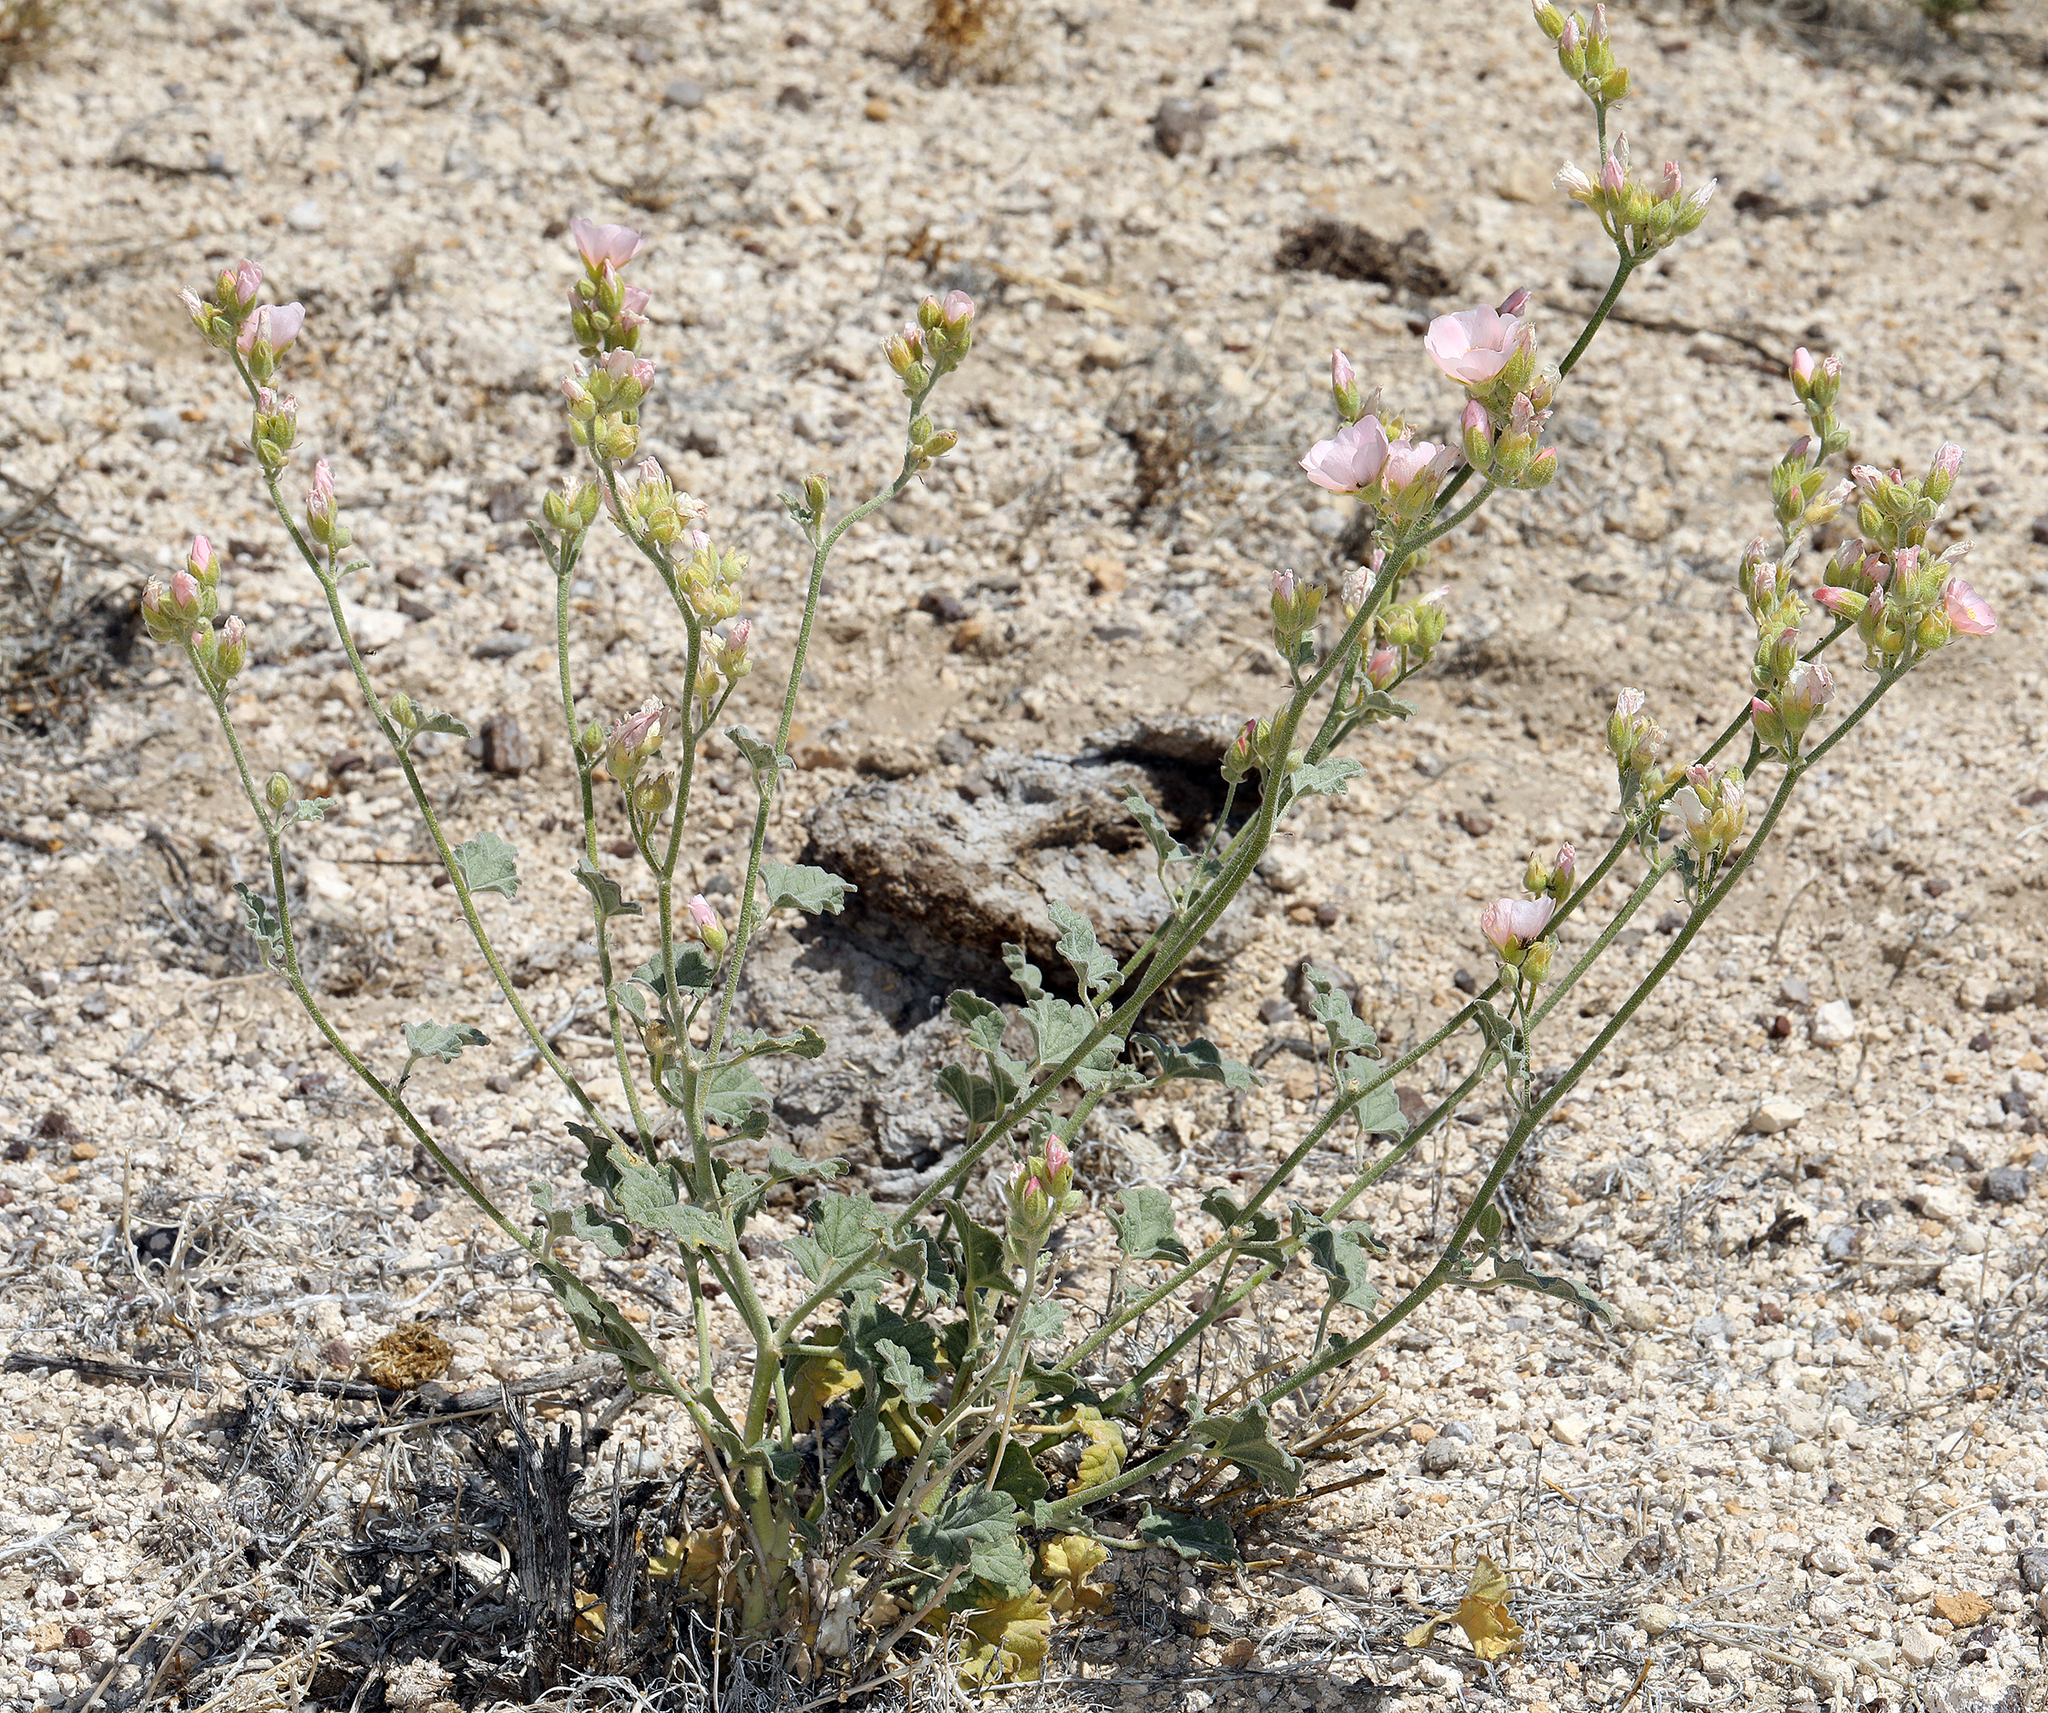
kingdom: Plantae
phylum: Tracheophyta
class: Magnoliopsida
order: Malvales
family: Malvaceae
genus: Sphaeralcea
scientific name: Sphaeralcea ambigua
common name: Apricot globe-mallow
